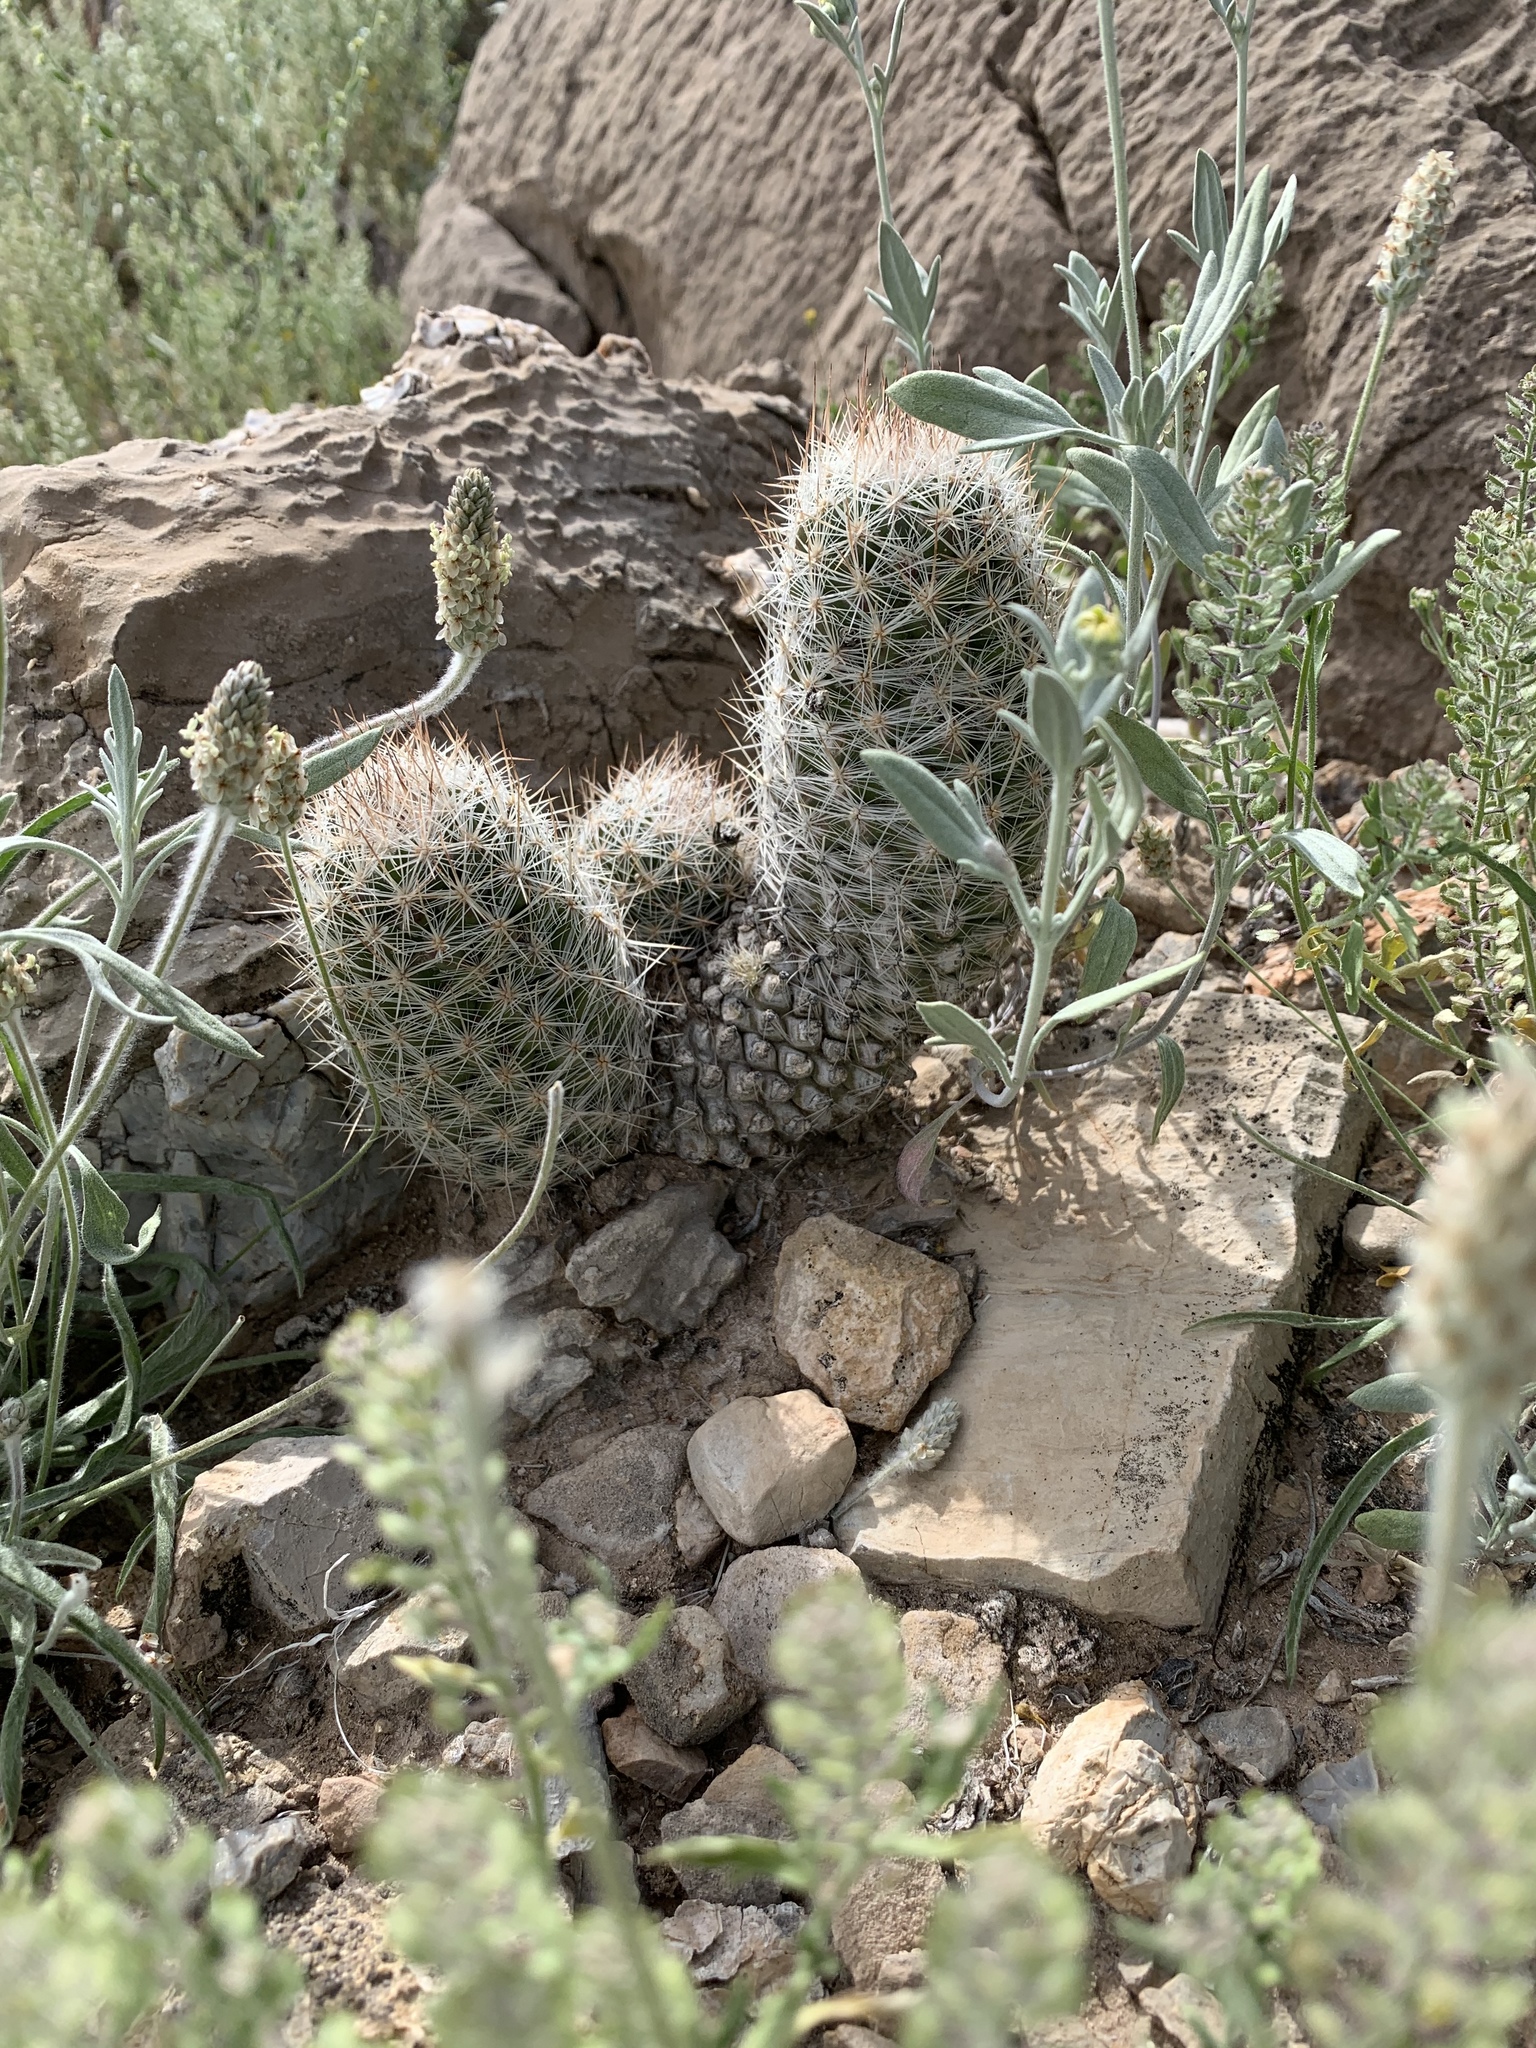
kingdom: Plantae
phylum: Tracheophyta
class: Magnoliopsida
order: Caryophyllales
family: Cactaceae
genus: Pelecyphora
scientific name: Pelecyphora tuberculosa
